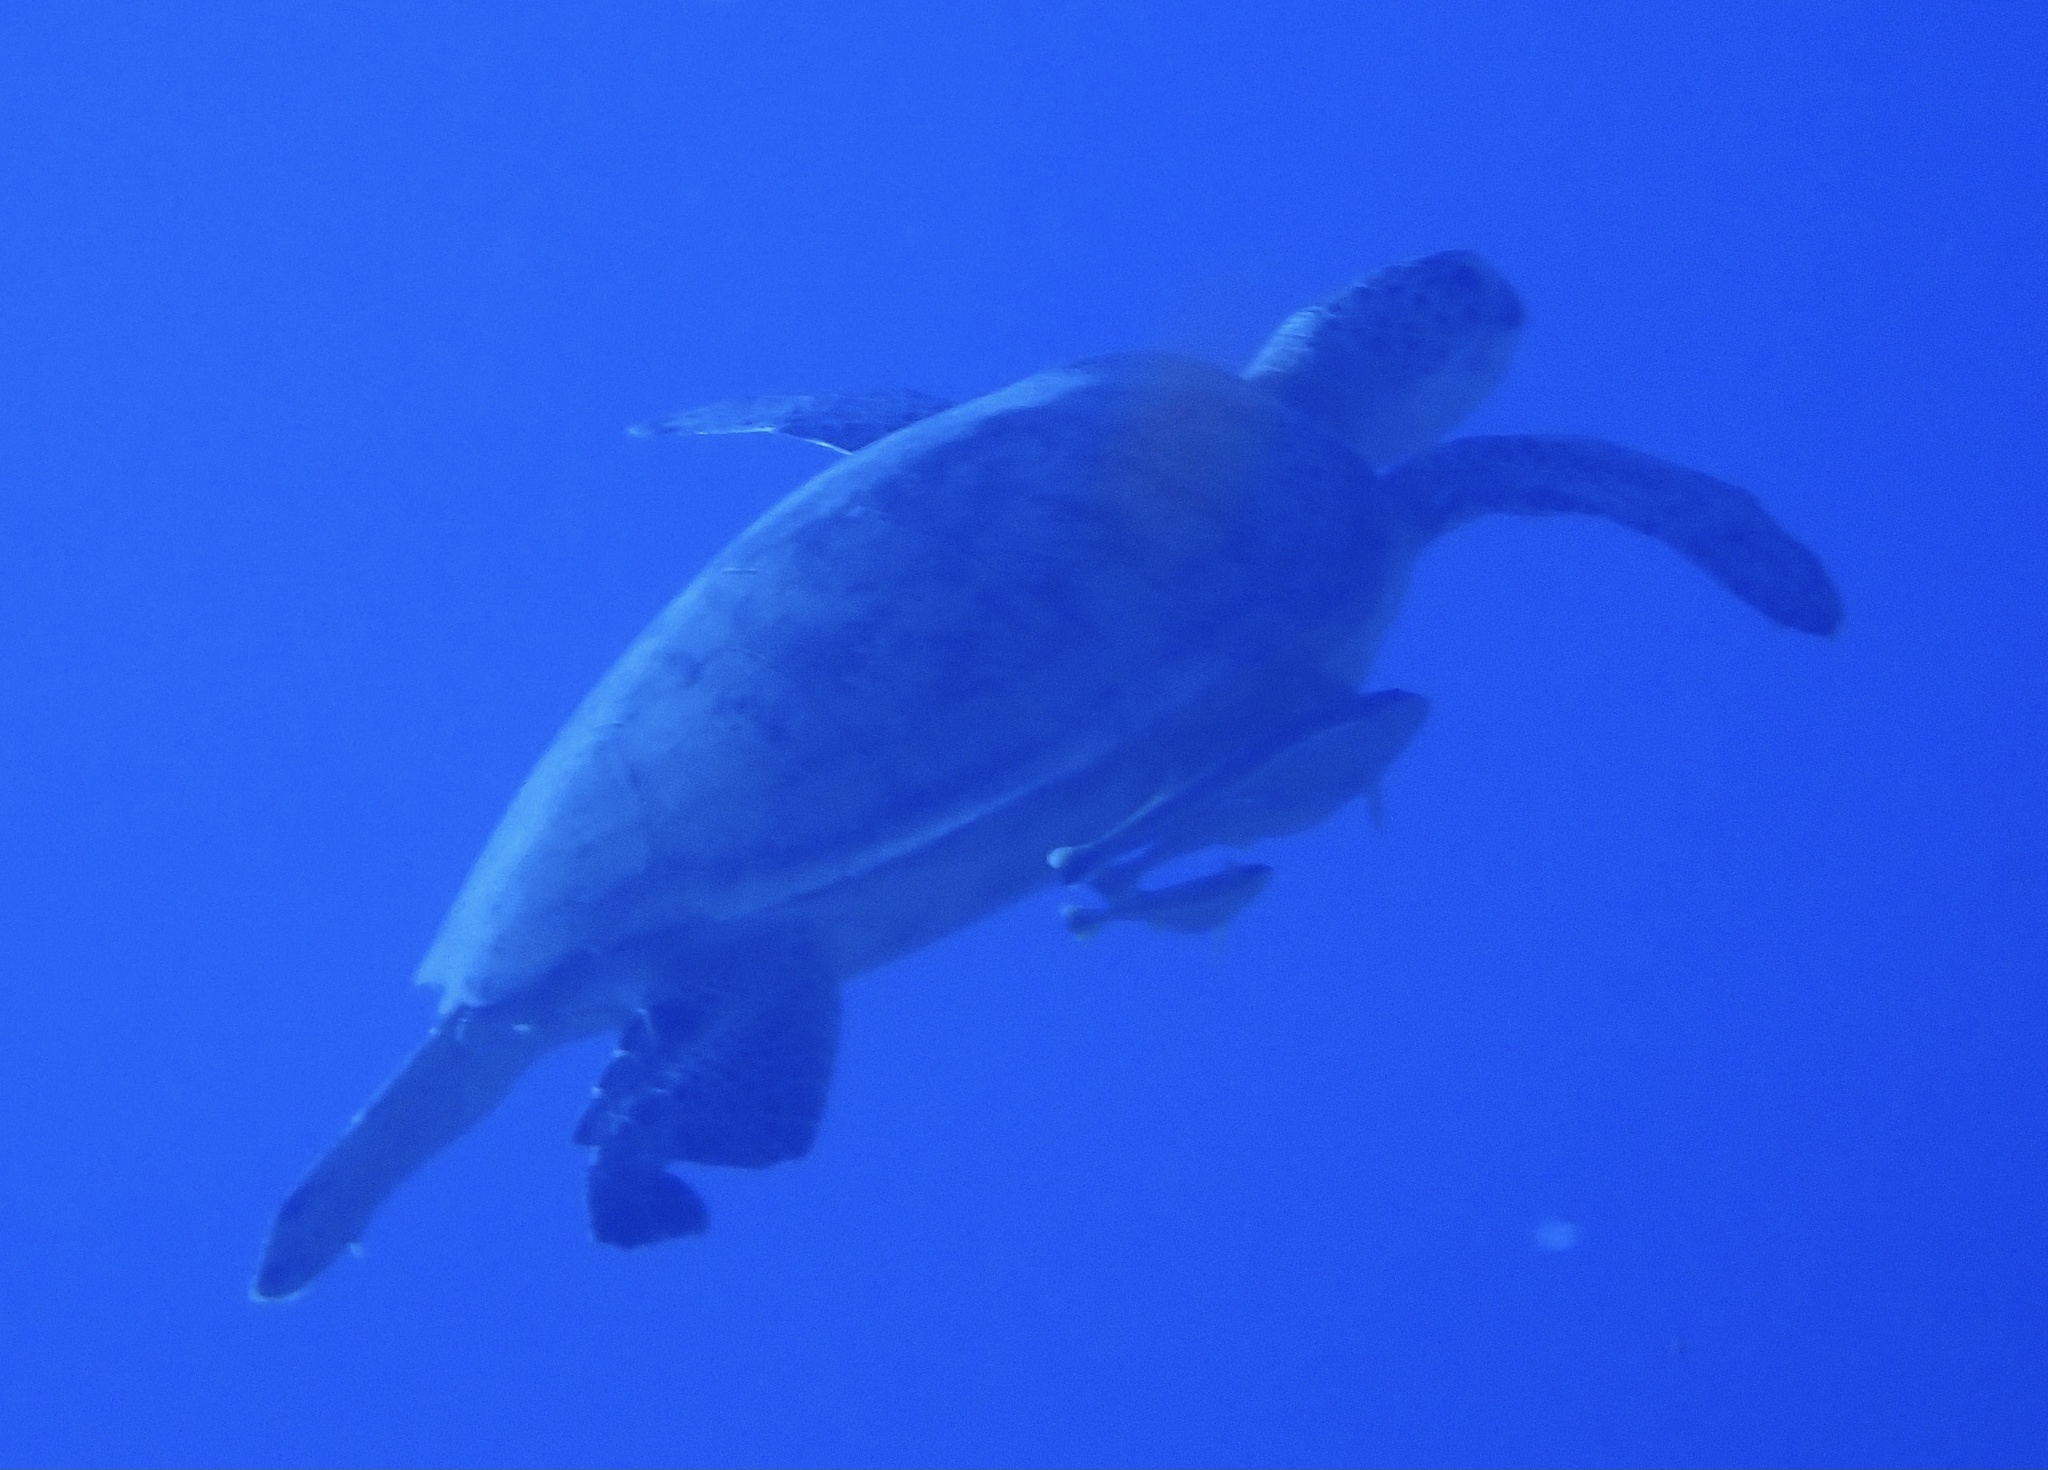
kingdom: Animalia
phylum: Chordata
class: Testudines
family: Cheloniidae
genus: Chelonia
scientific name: Chelonia mydas
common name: Green turtle
